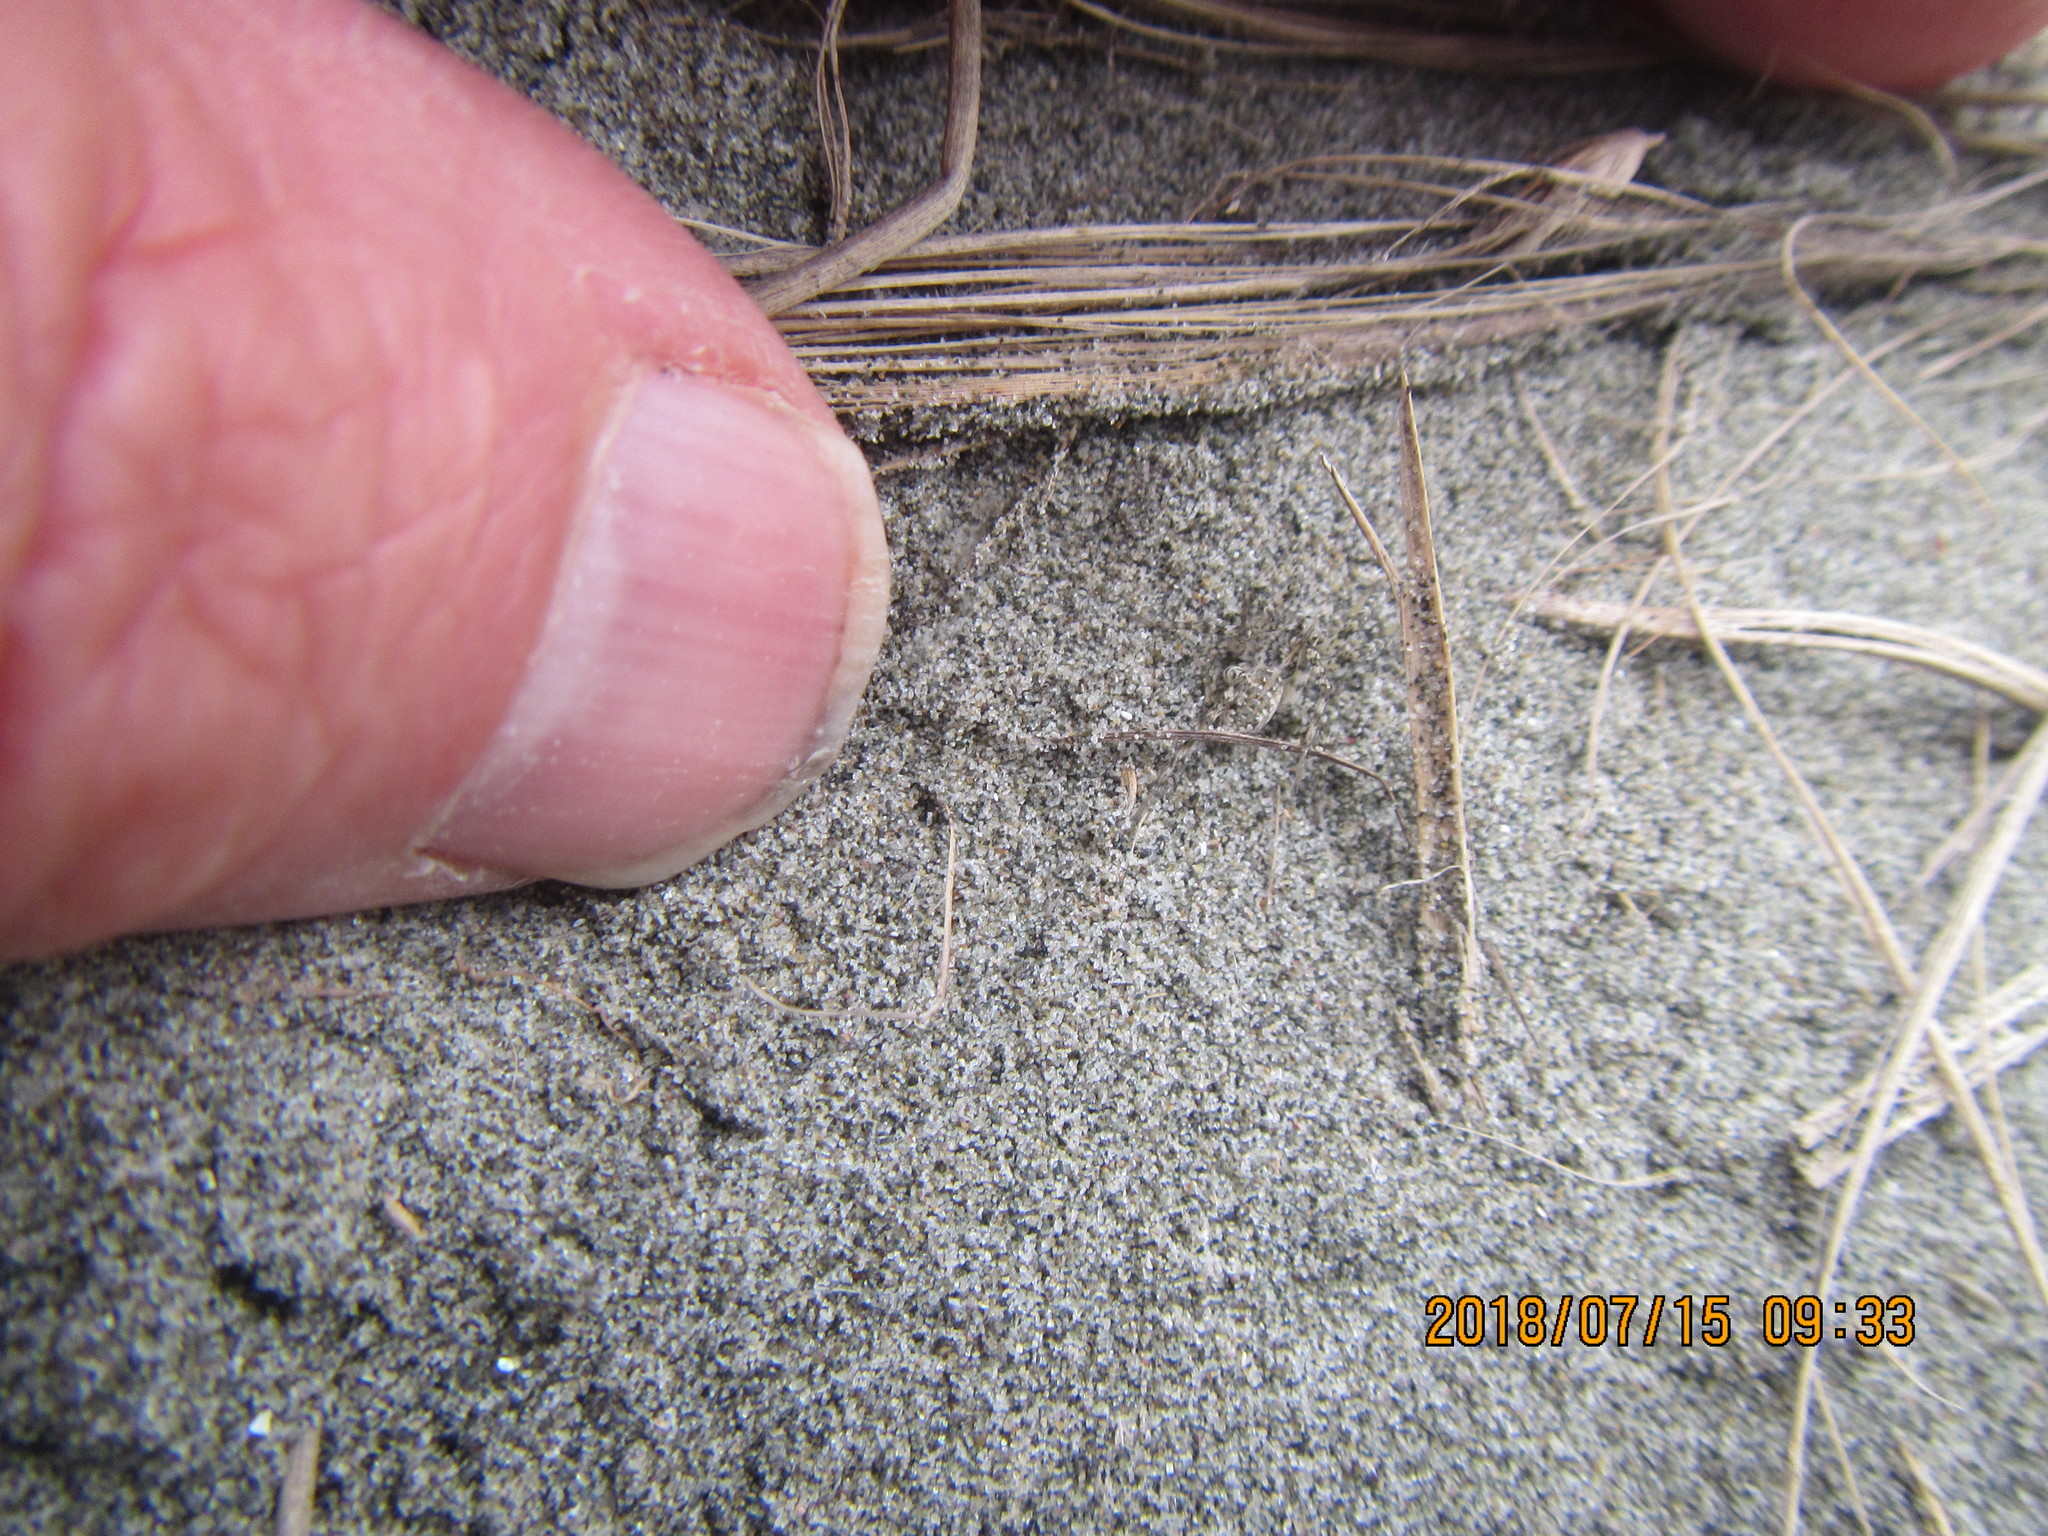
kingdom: Animalia
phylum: Arthropoda
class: Arachnida
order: Araneae
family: Lycosidae
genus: Anoteropsis
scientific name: Anoteropsis litoralis
